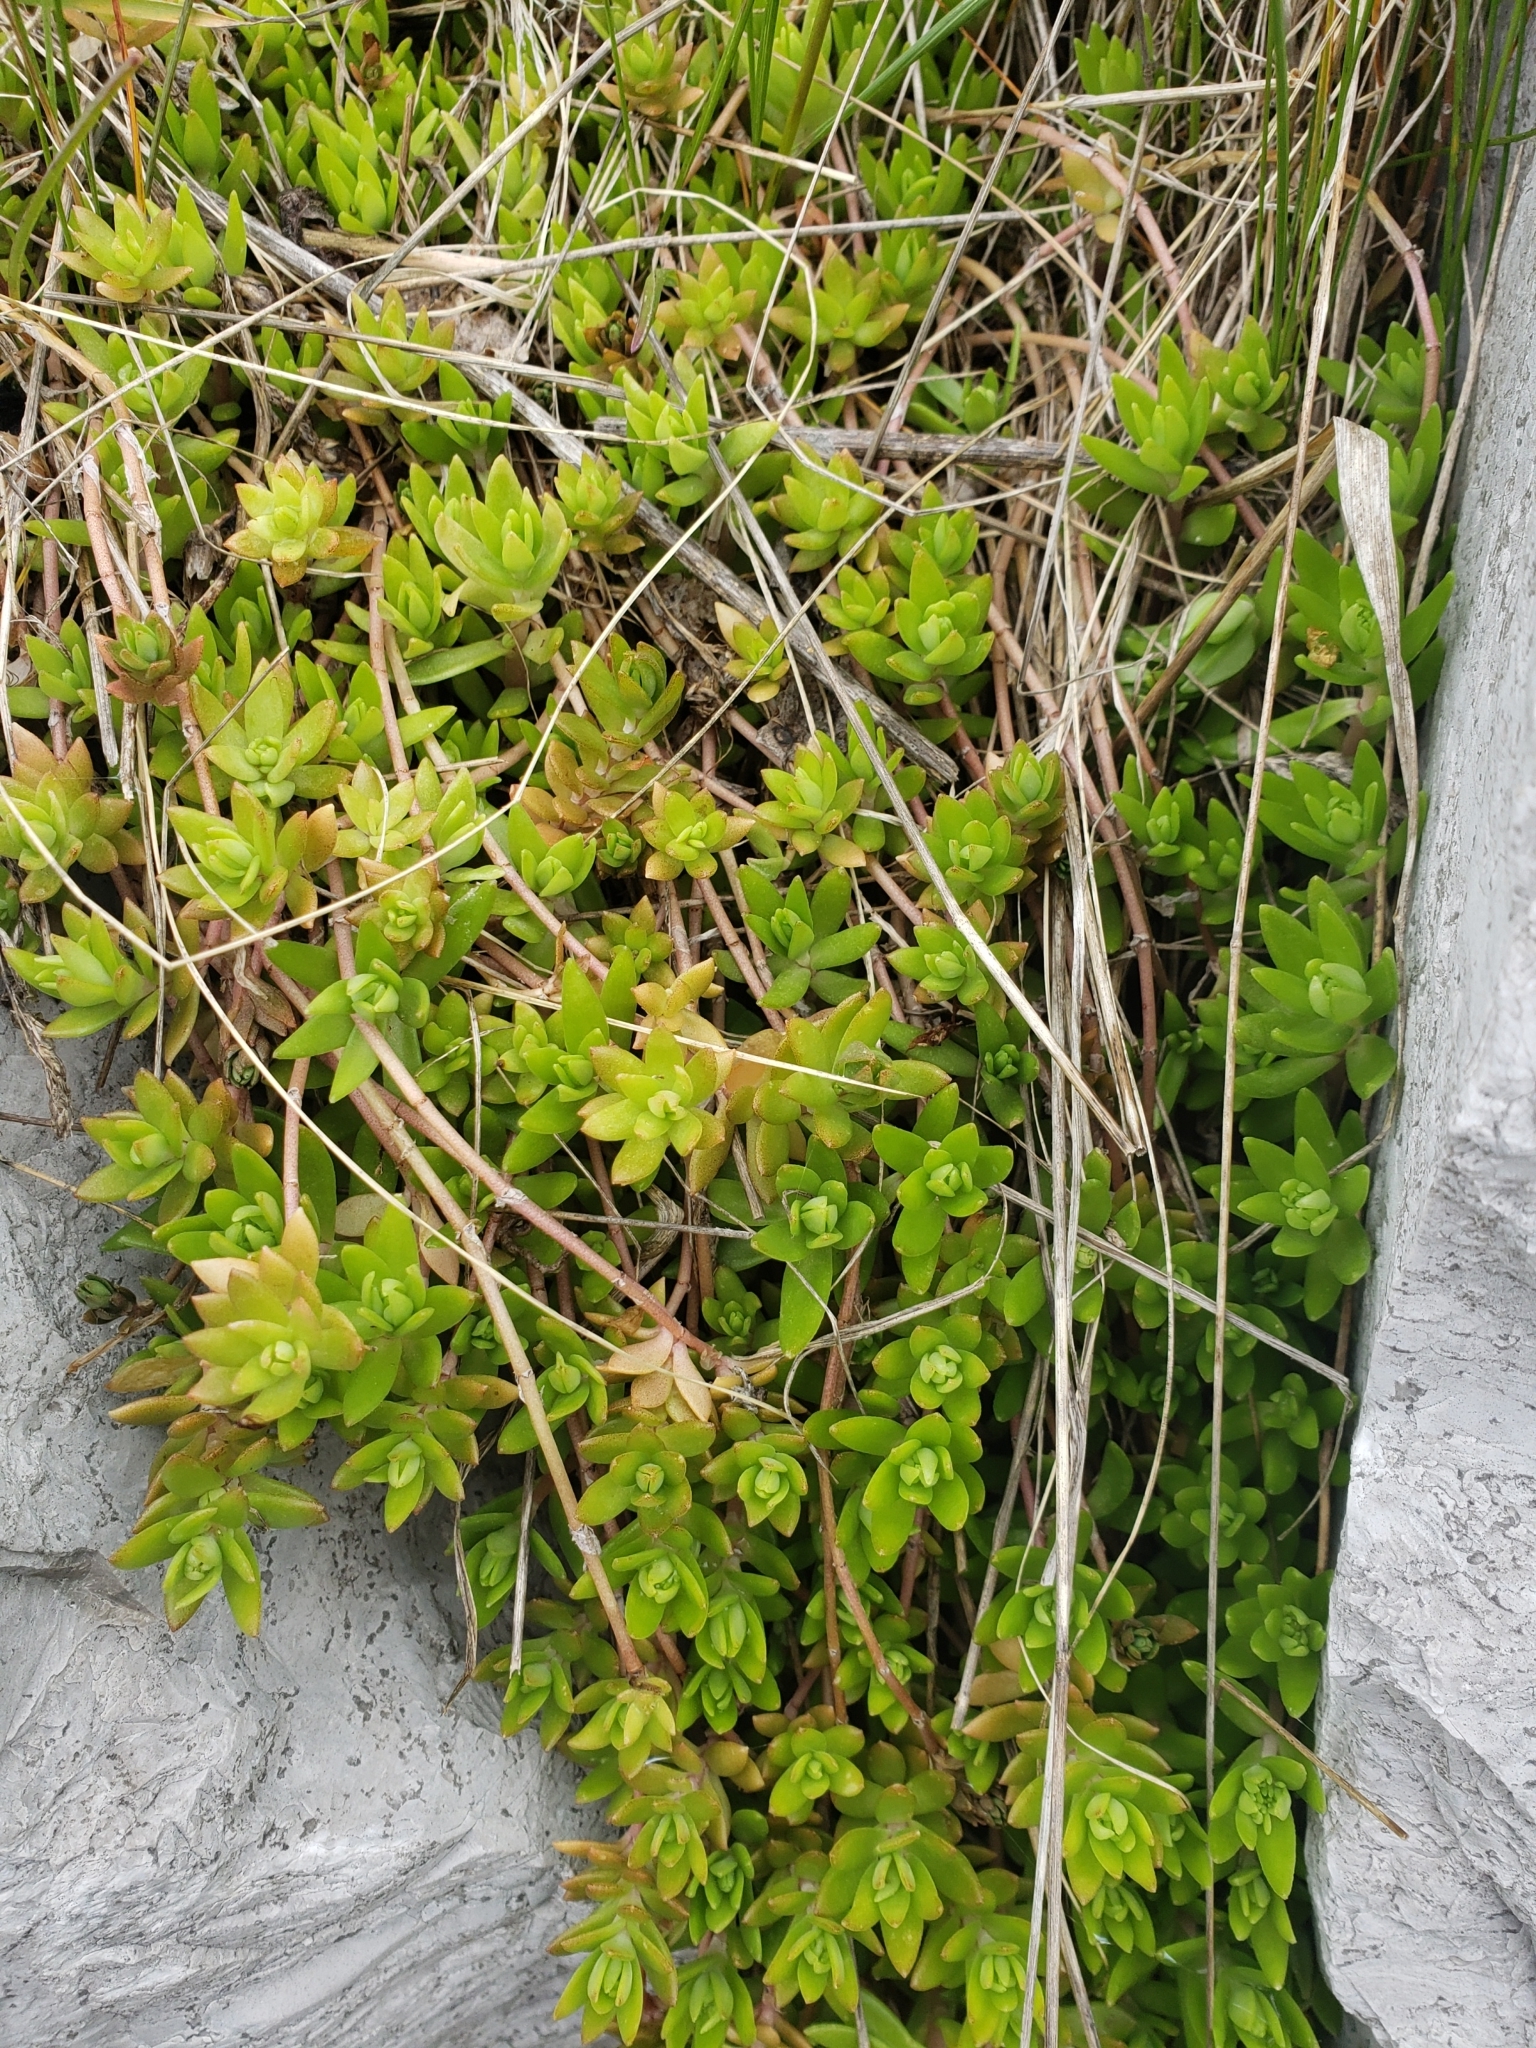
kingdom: Plantae
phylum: Tracheophyta
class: Magnoliopsida
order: Saxifragales
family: Crassulaceae
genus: Sedum
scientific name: Sedum sarmentosum
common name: Stringy stonecrop
